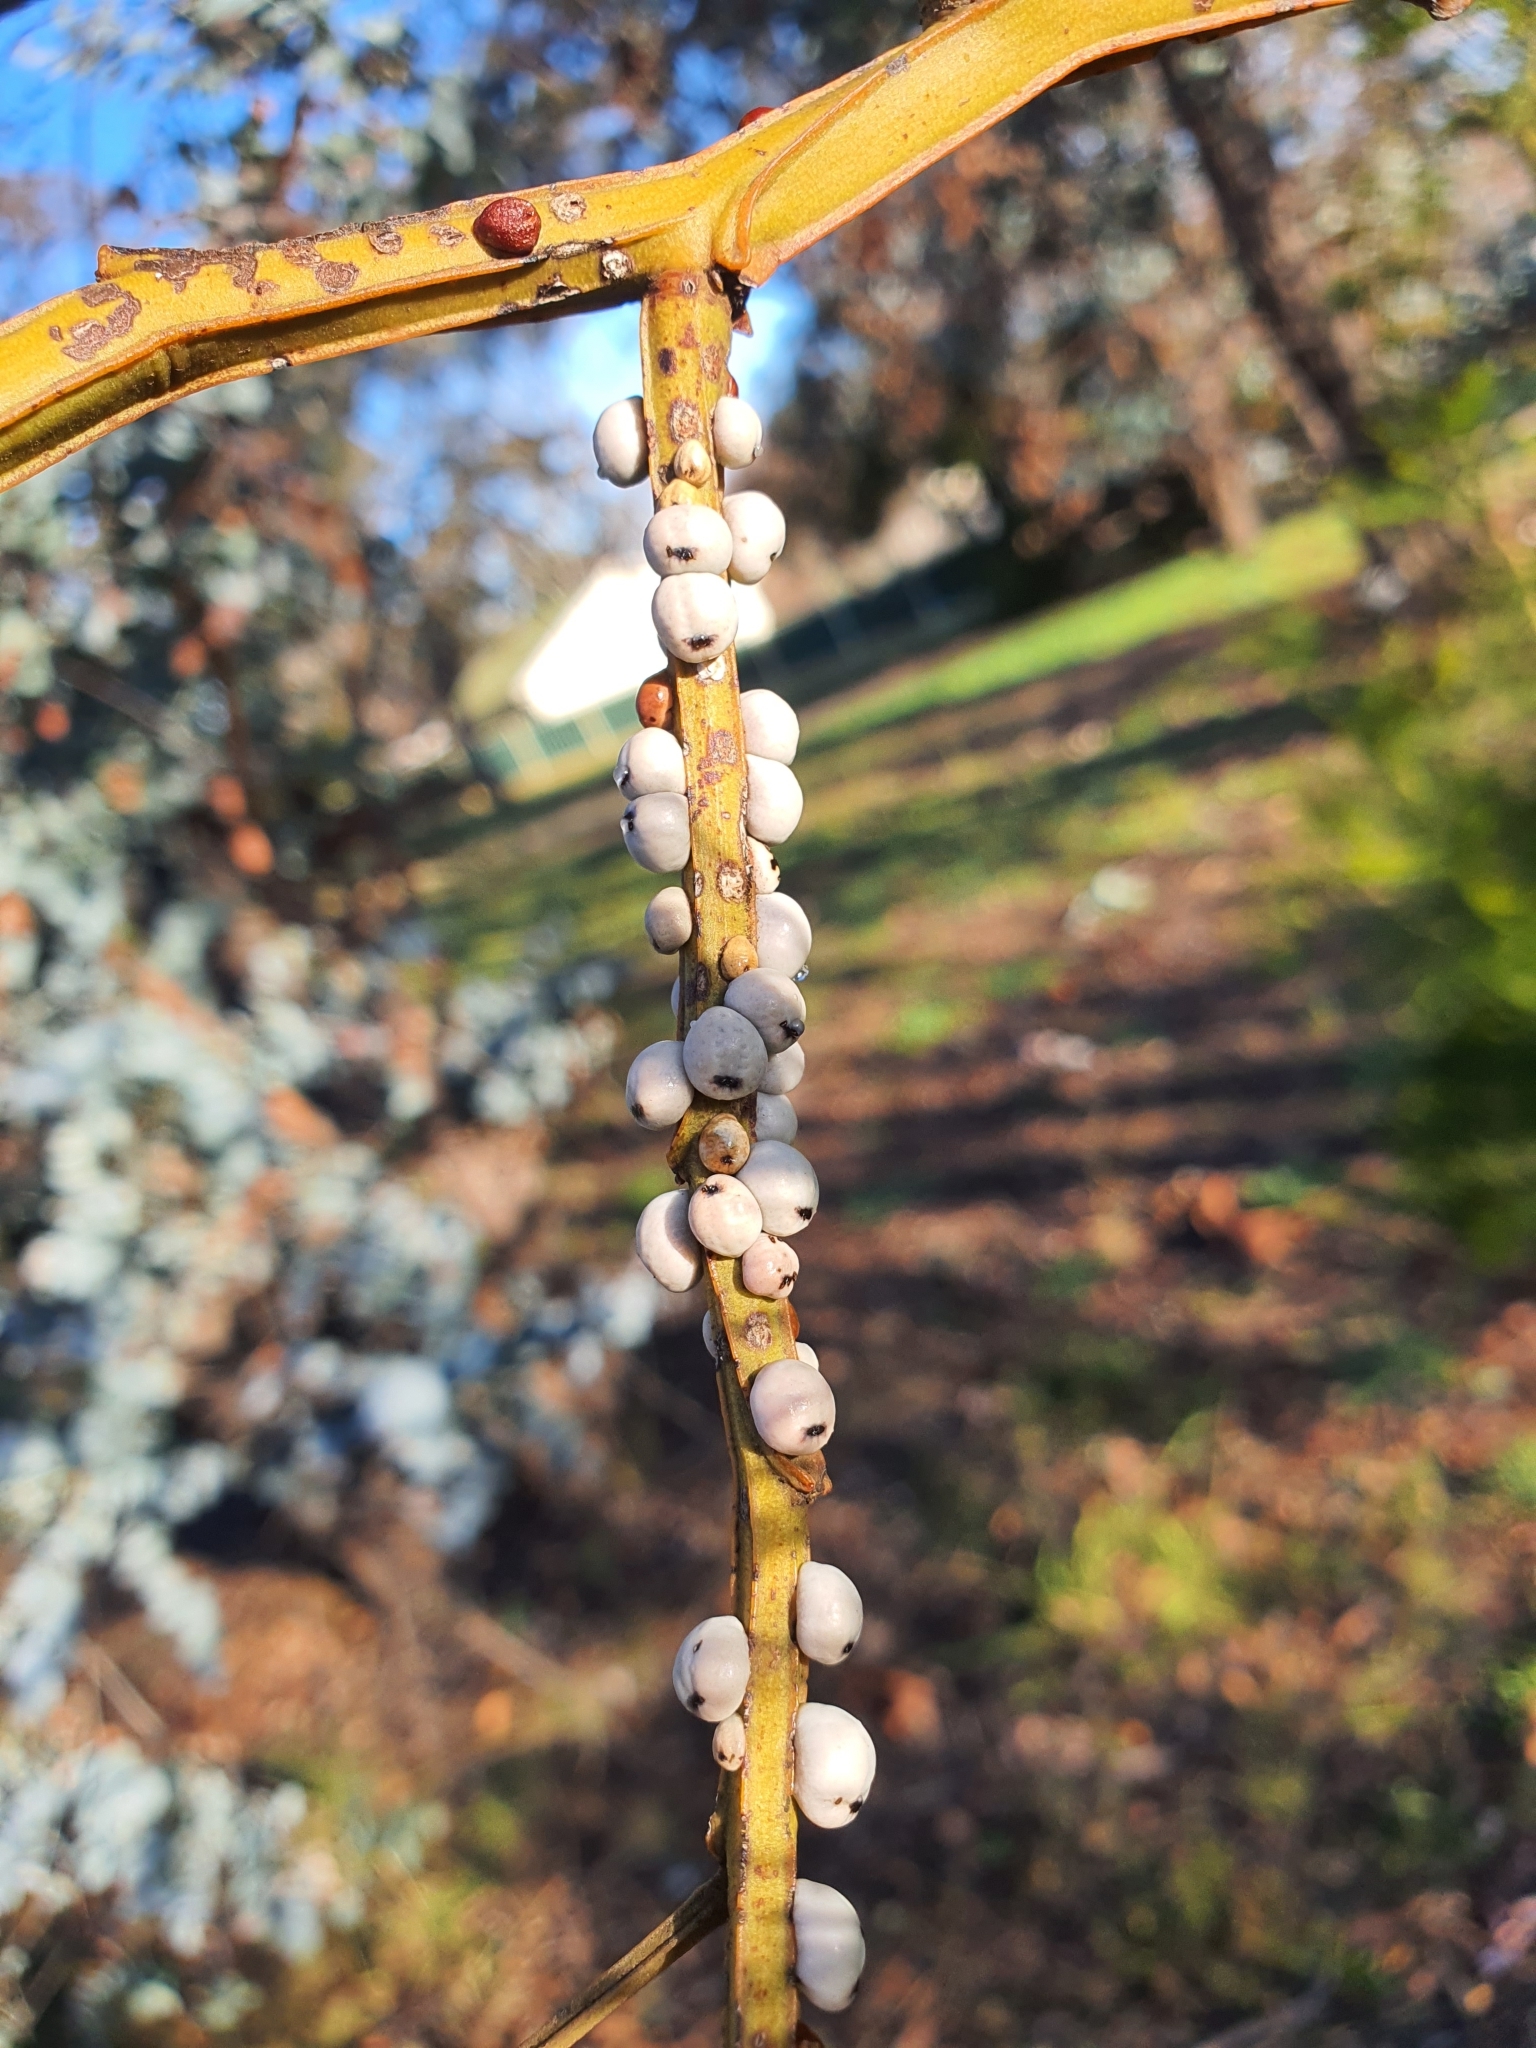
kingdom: Animalia
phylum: Arthropoda
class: Insecta
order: Hemiptera
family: Coccidae
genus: Cryptes
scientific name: Cryptes baccatus
